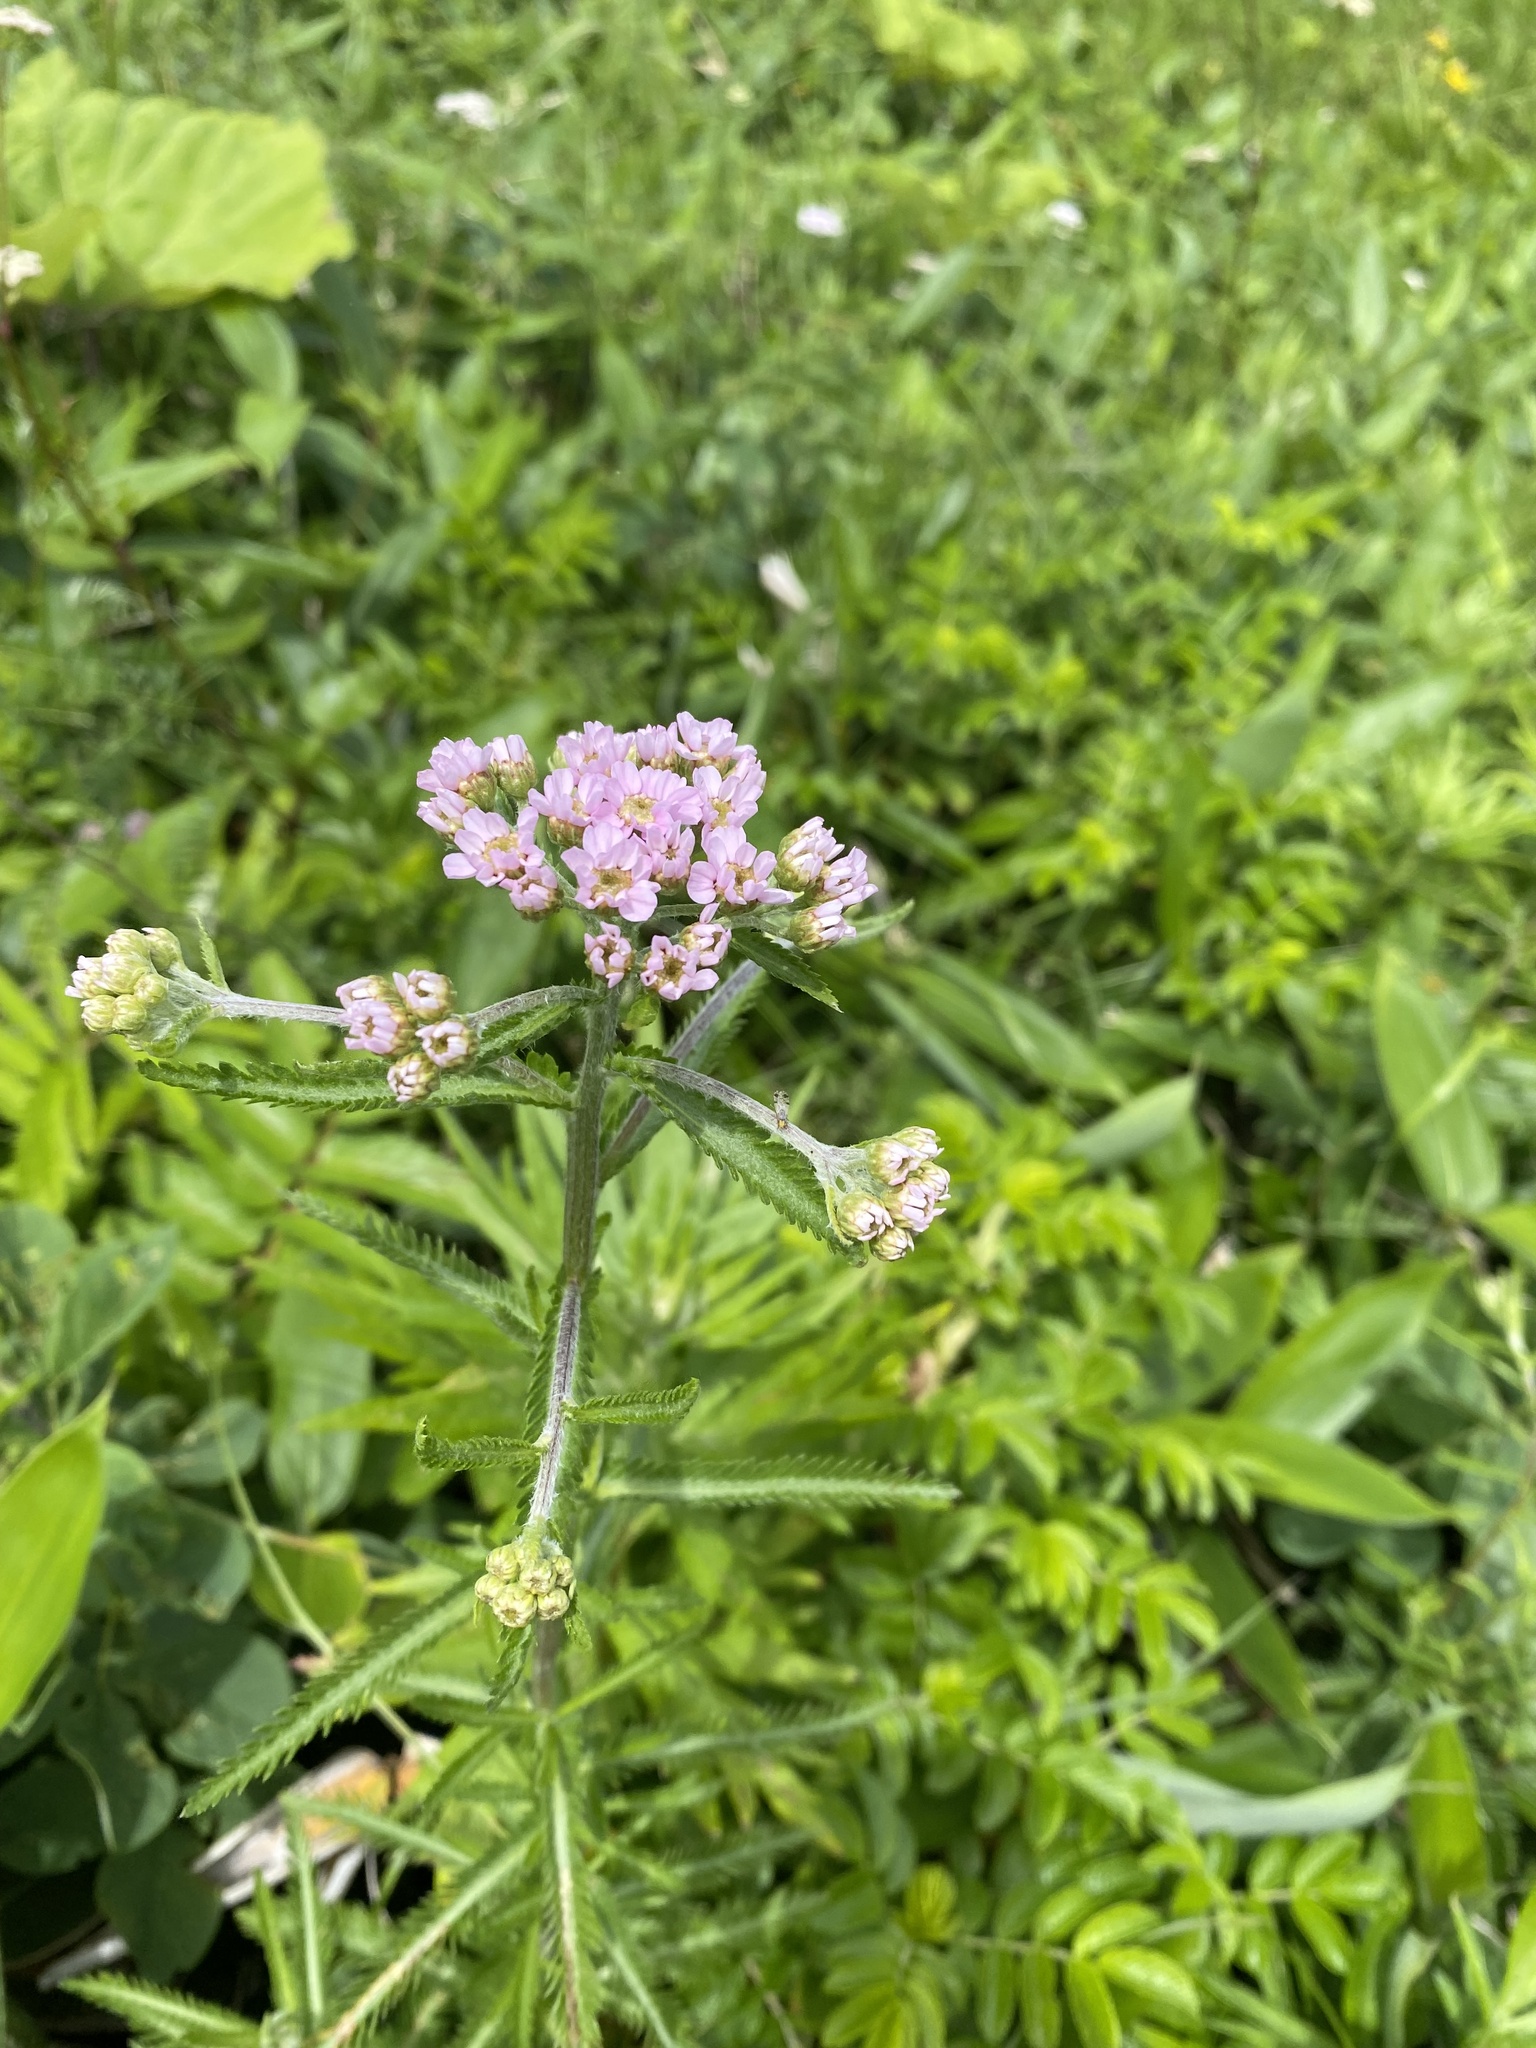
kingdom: Plantae
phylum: Tracheophyta
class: Magnoliopsida
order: Asterales
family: Asteraceae
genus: Achillea
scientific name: Achillea alpina
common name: Siberian yarrow
